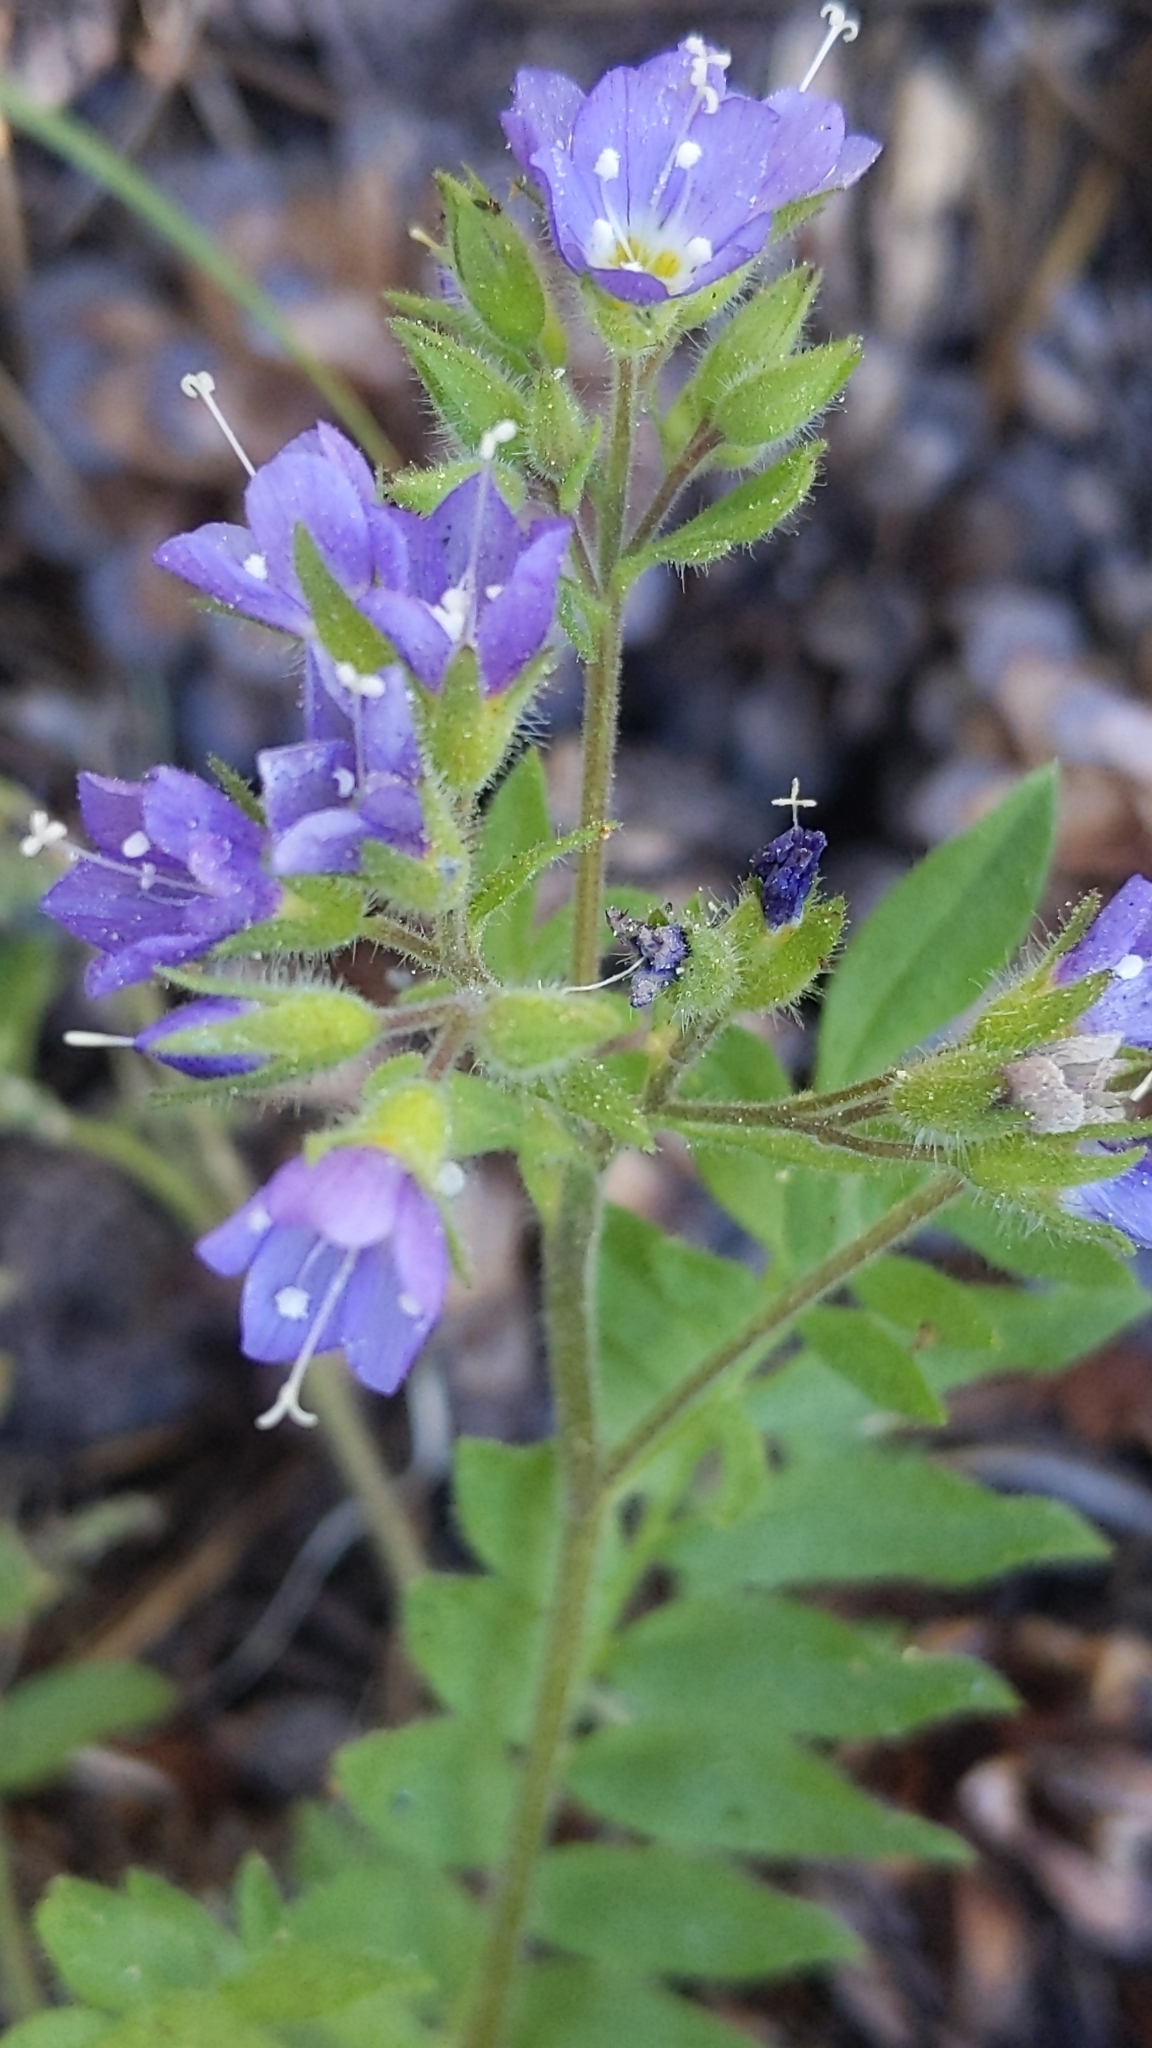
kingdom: Plantae
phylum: Tracheophyta
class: Magnoliopsida
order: Ericales
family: Polemoniaceae
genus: Polemonium
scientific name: Polemonium californicum
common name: California jacob's ladder
